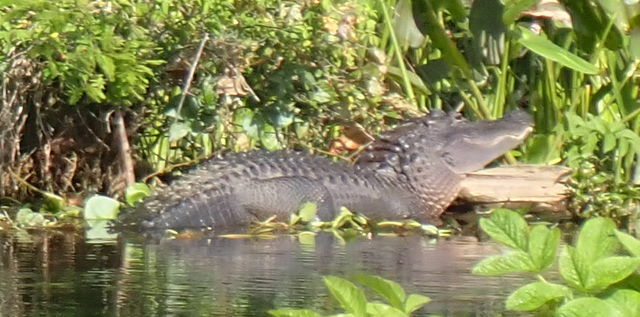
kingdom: Animalia
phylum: Chordata
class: Crocodylia
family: Alligatoridae
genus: Alligator
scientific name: Alligator mississippiensis
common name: American alligator
